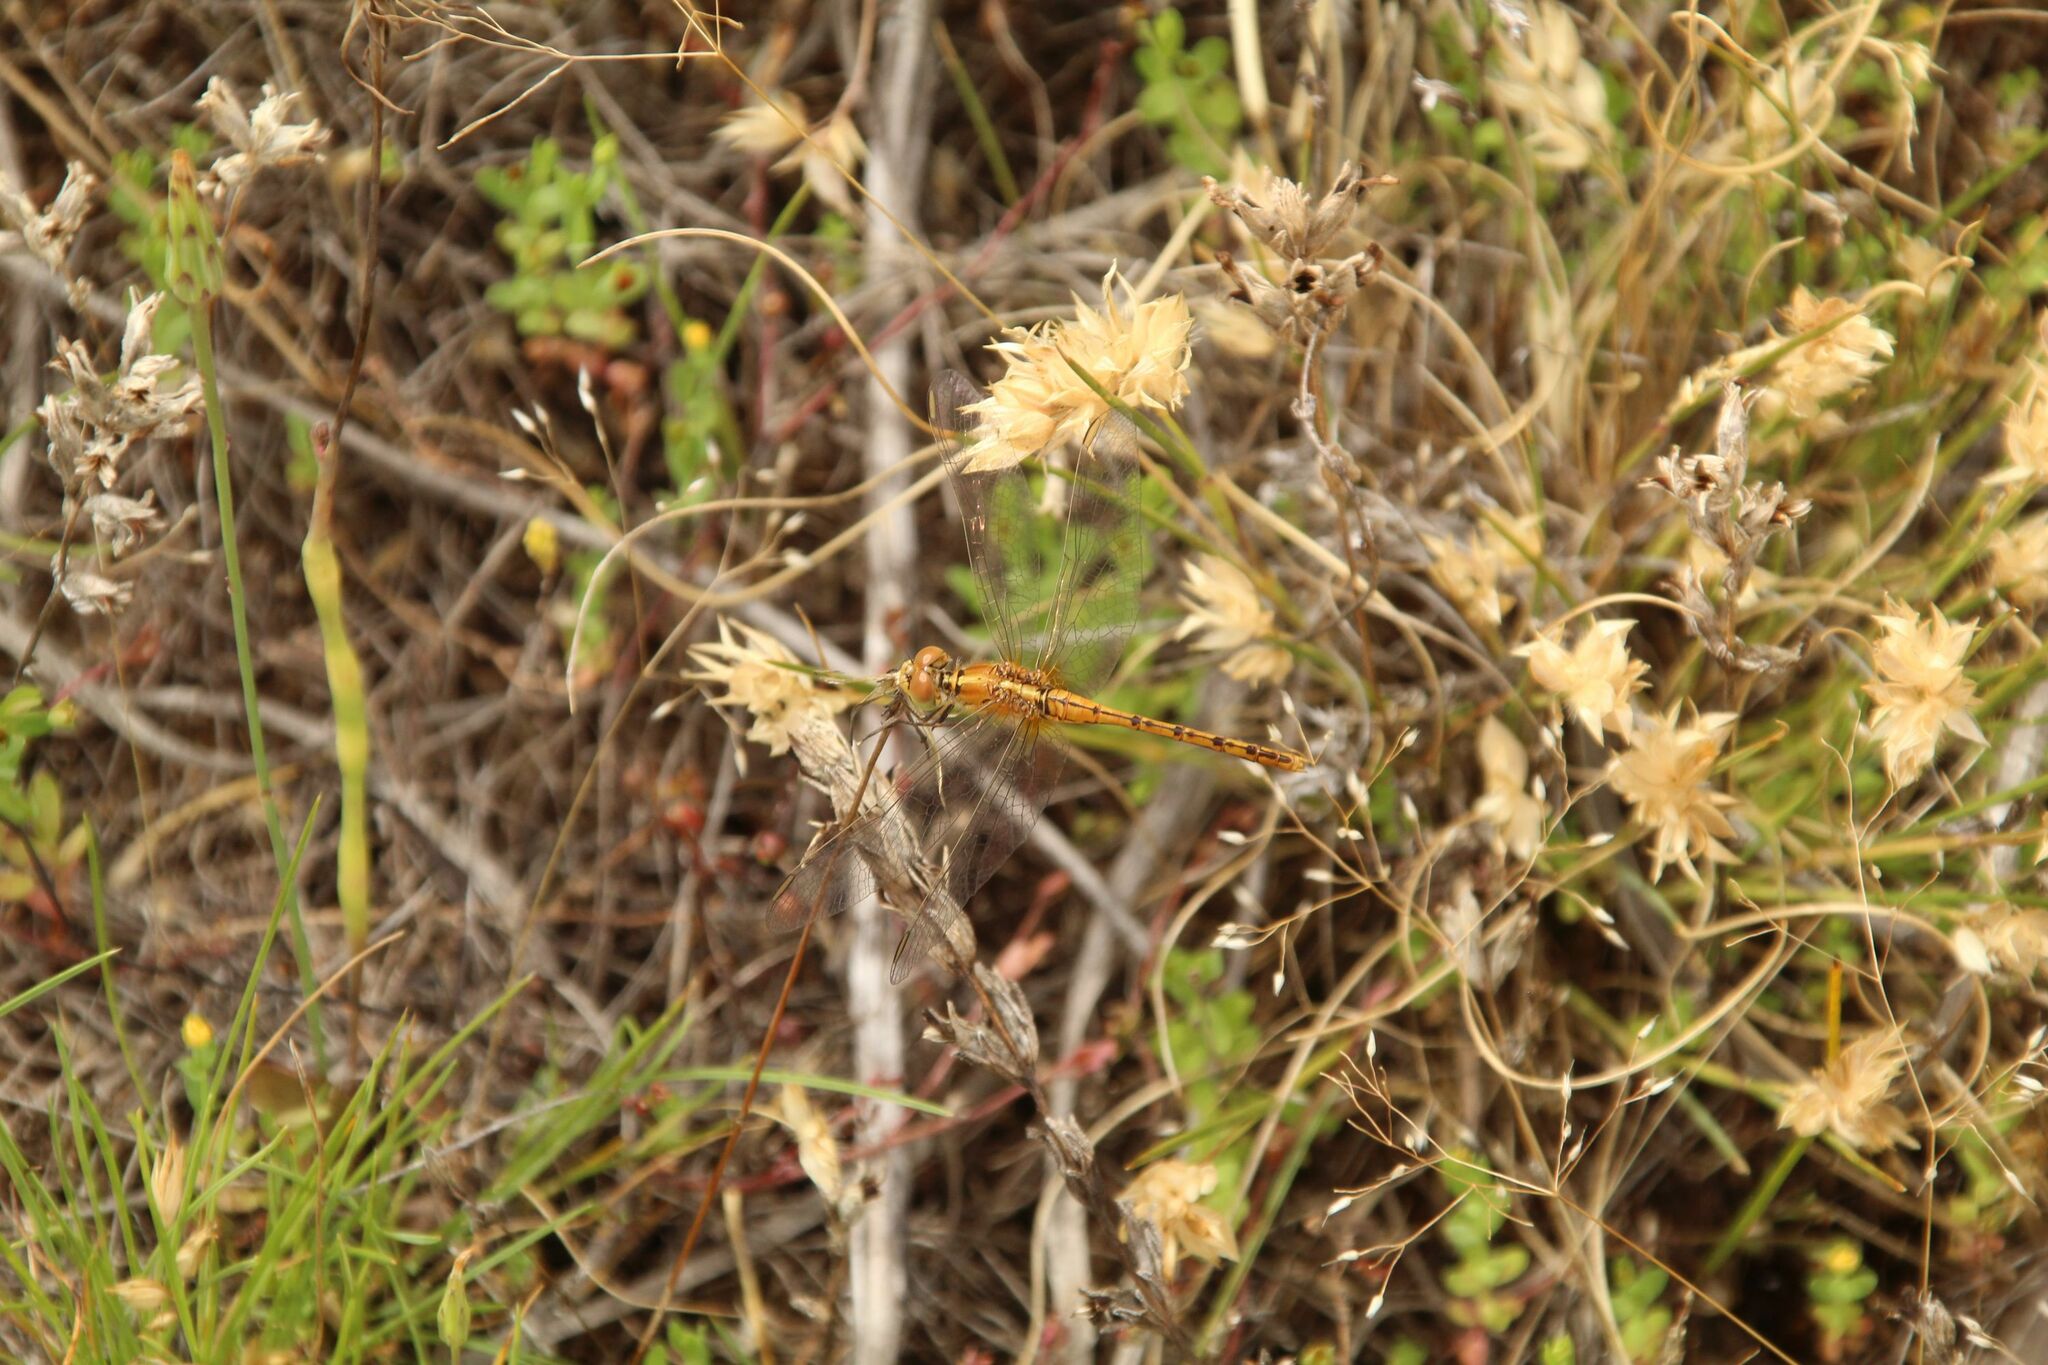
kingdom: Animalia
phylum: Arthropoda
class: Insecta
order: Odonata
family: Libellulidae
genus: Diplacodes
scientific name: Diplacodes bipunctata
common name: Red percher dragonfly
